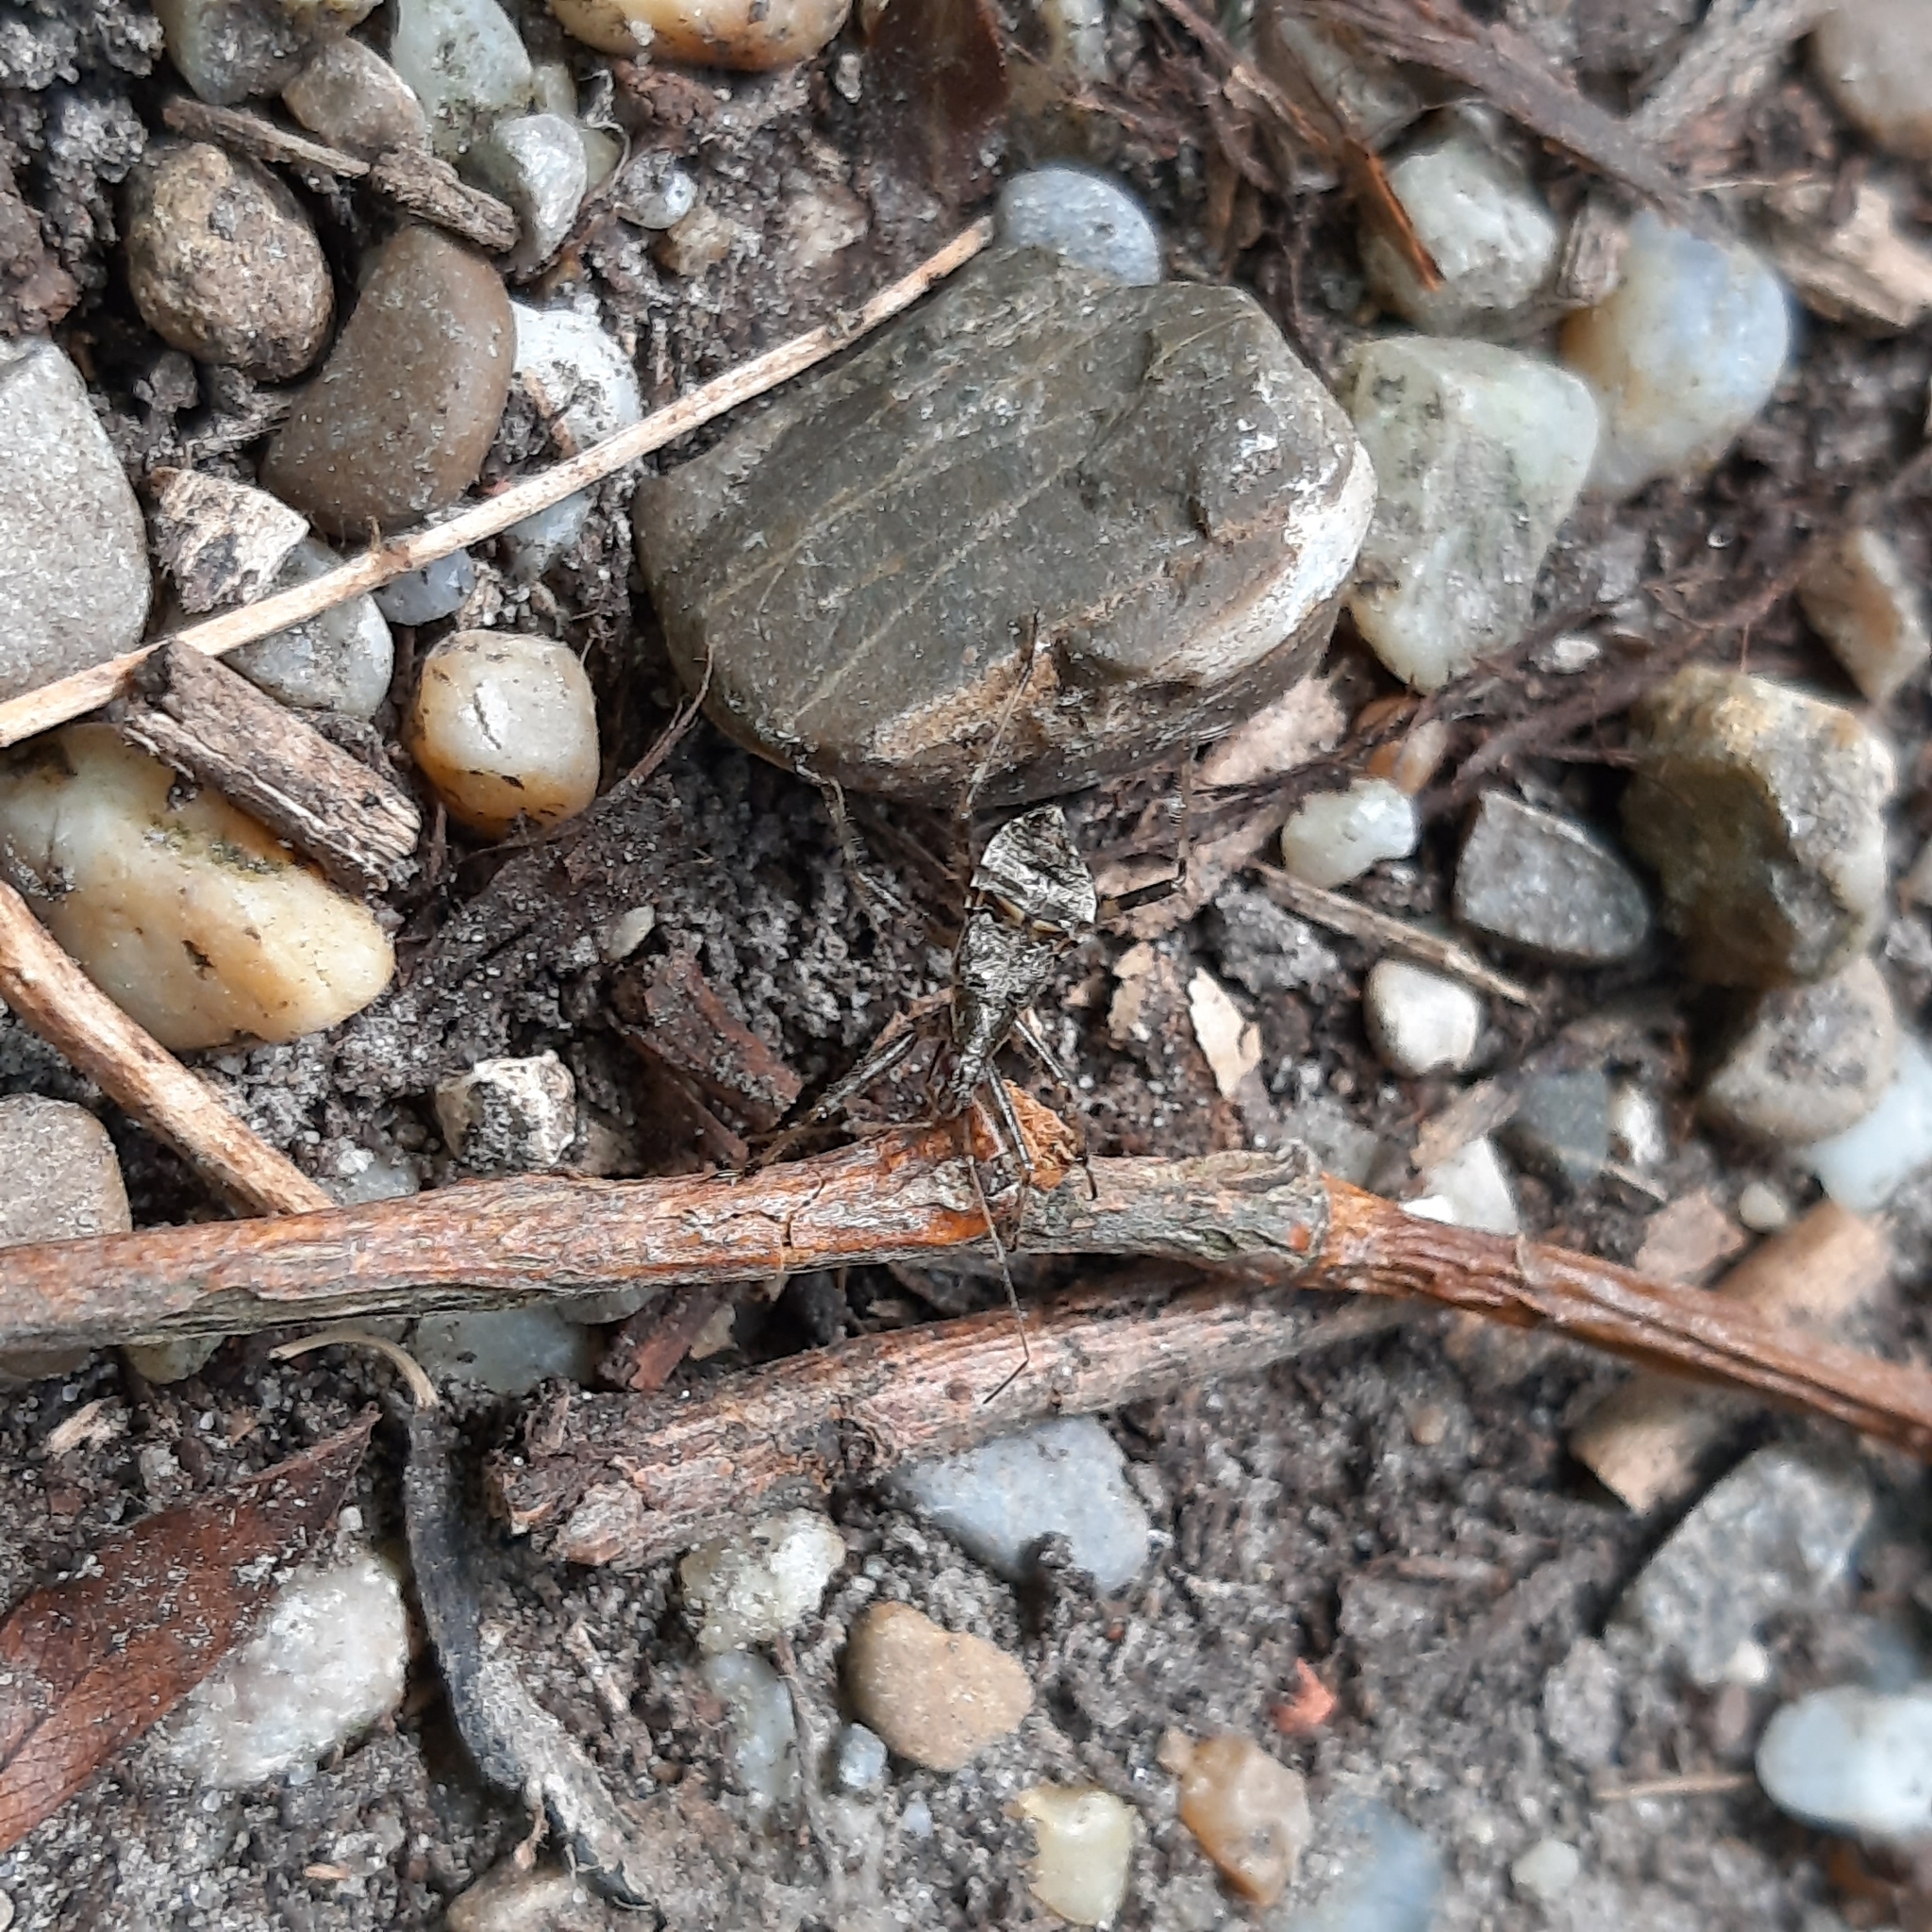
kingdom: Animalia
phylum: Arthropoda
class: Insecta
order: Hemiptera
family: Nabidae
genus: Himacerus
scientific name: Himacerus apterus
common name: Tree damsel bug
